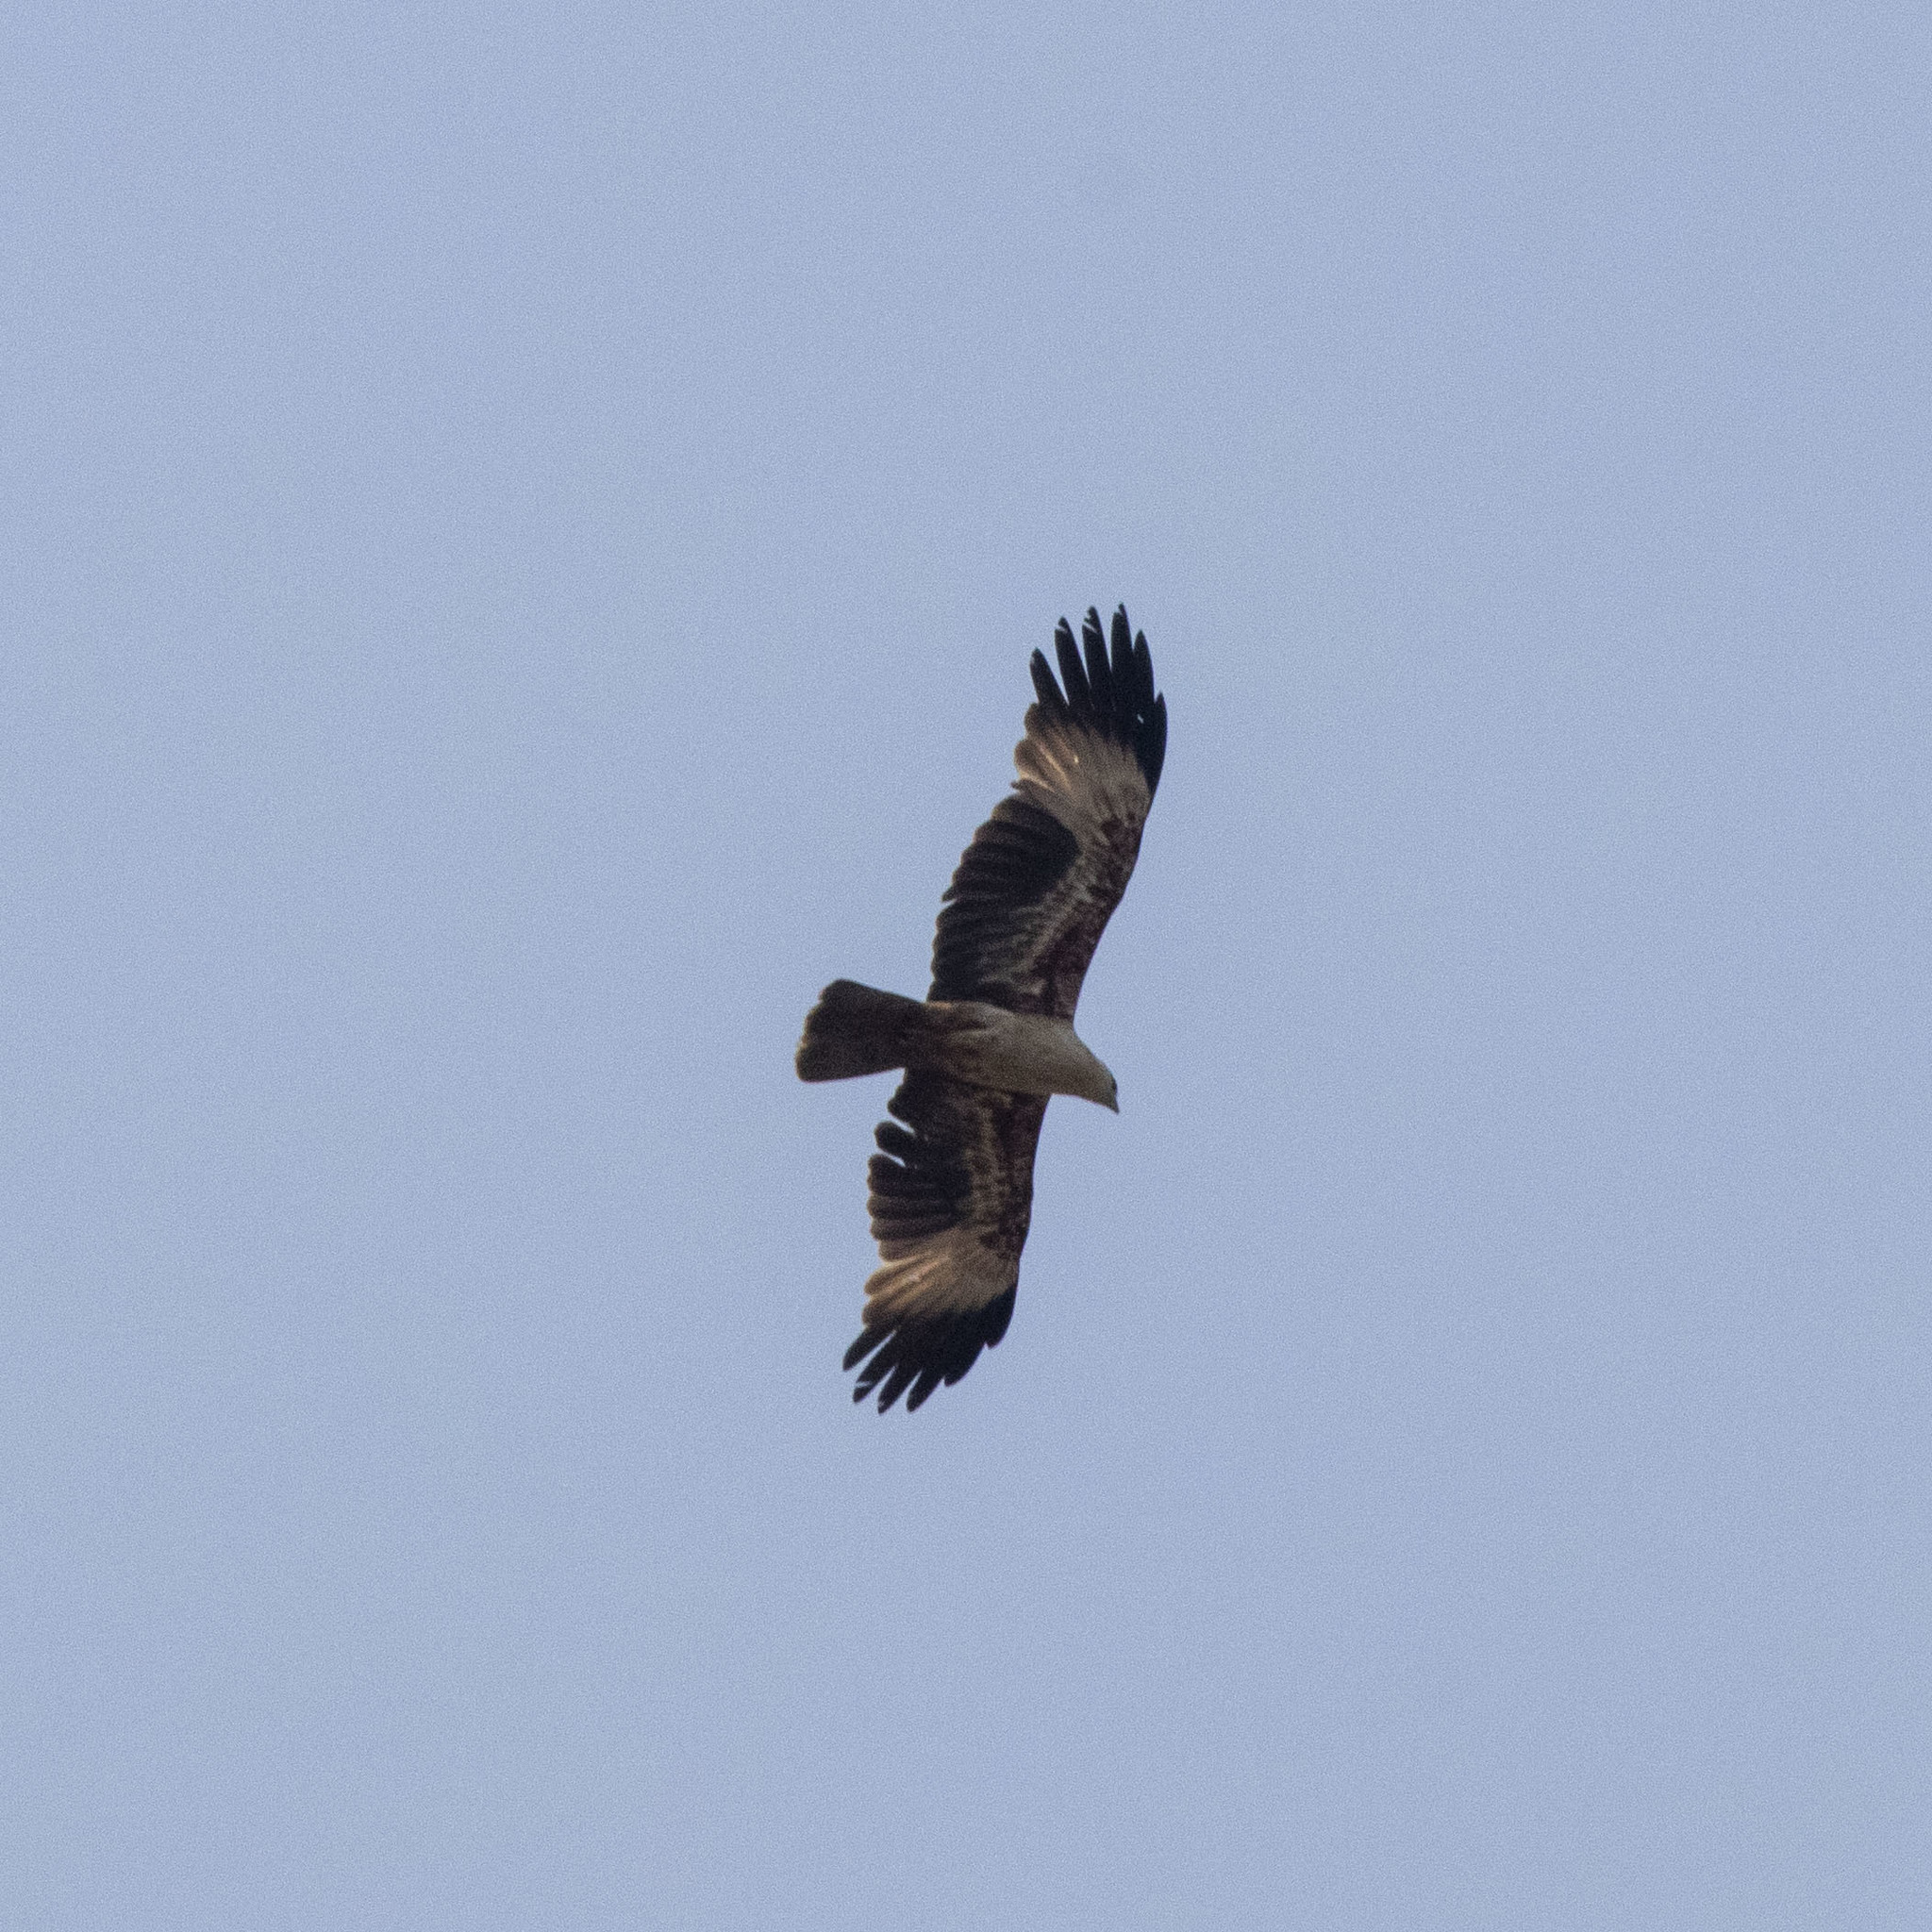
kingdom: Animalia
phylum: Chordata
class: Aves
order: Accipitriformes
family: Accipitridae
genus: Haliastur
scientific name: Haliastur indus
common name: Brahminy kite
